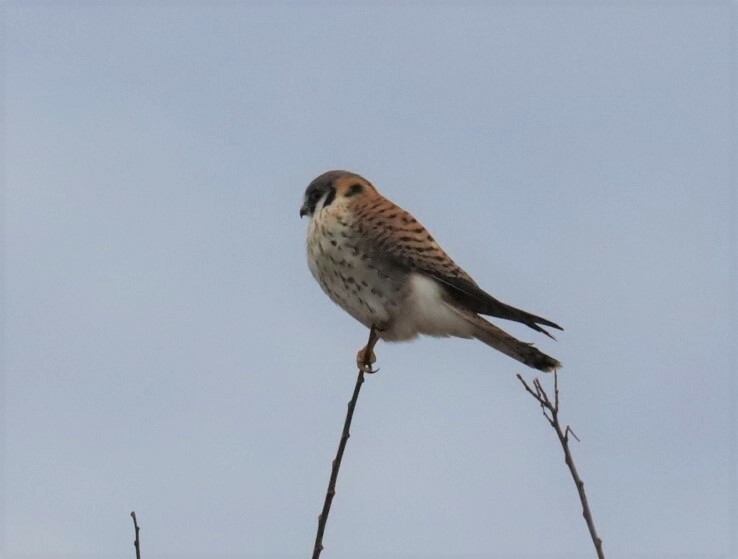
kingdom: Animalia
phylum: Chordata
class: Aves
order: Falconiformes
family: Falconidae
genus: Falco
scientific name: Falco sparverius
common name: American kestrel
